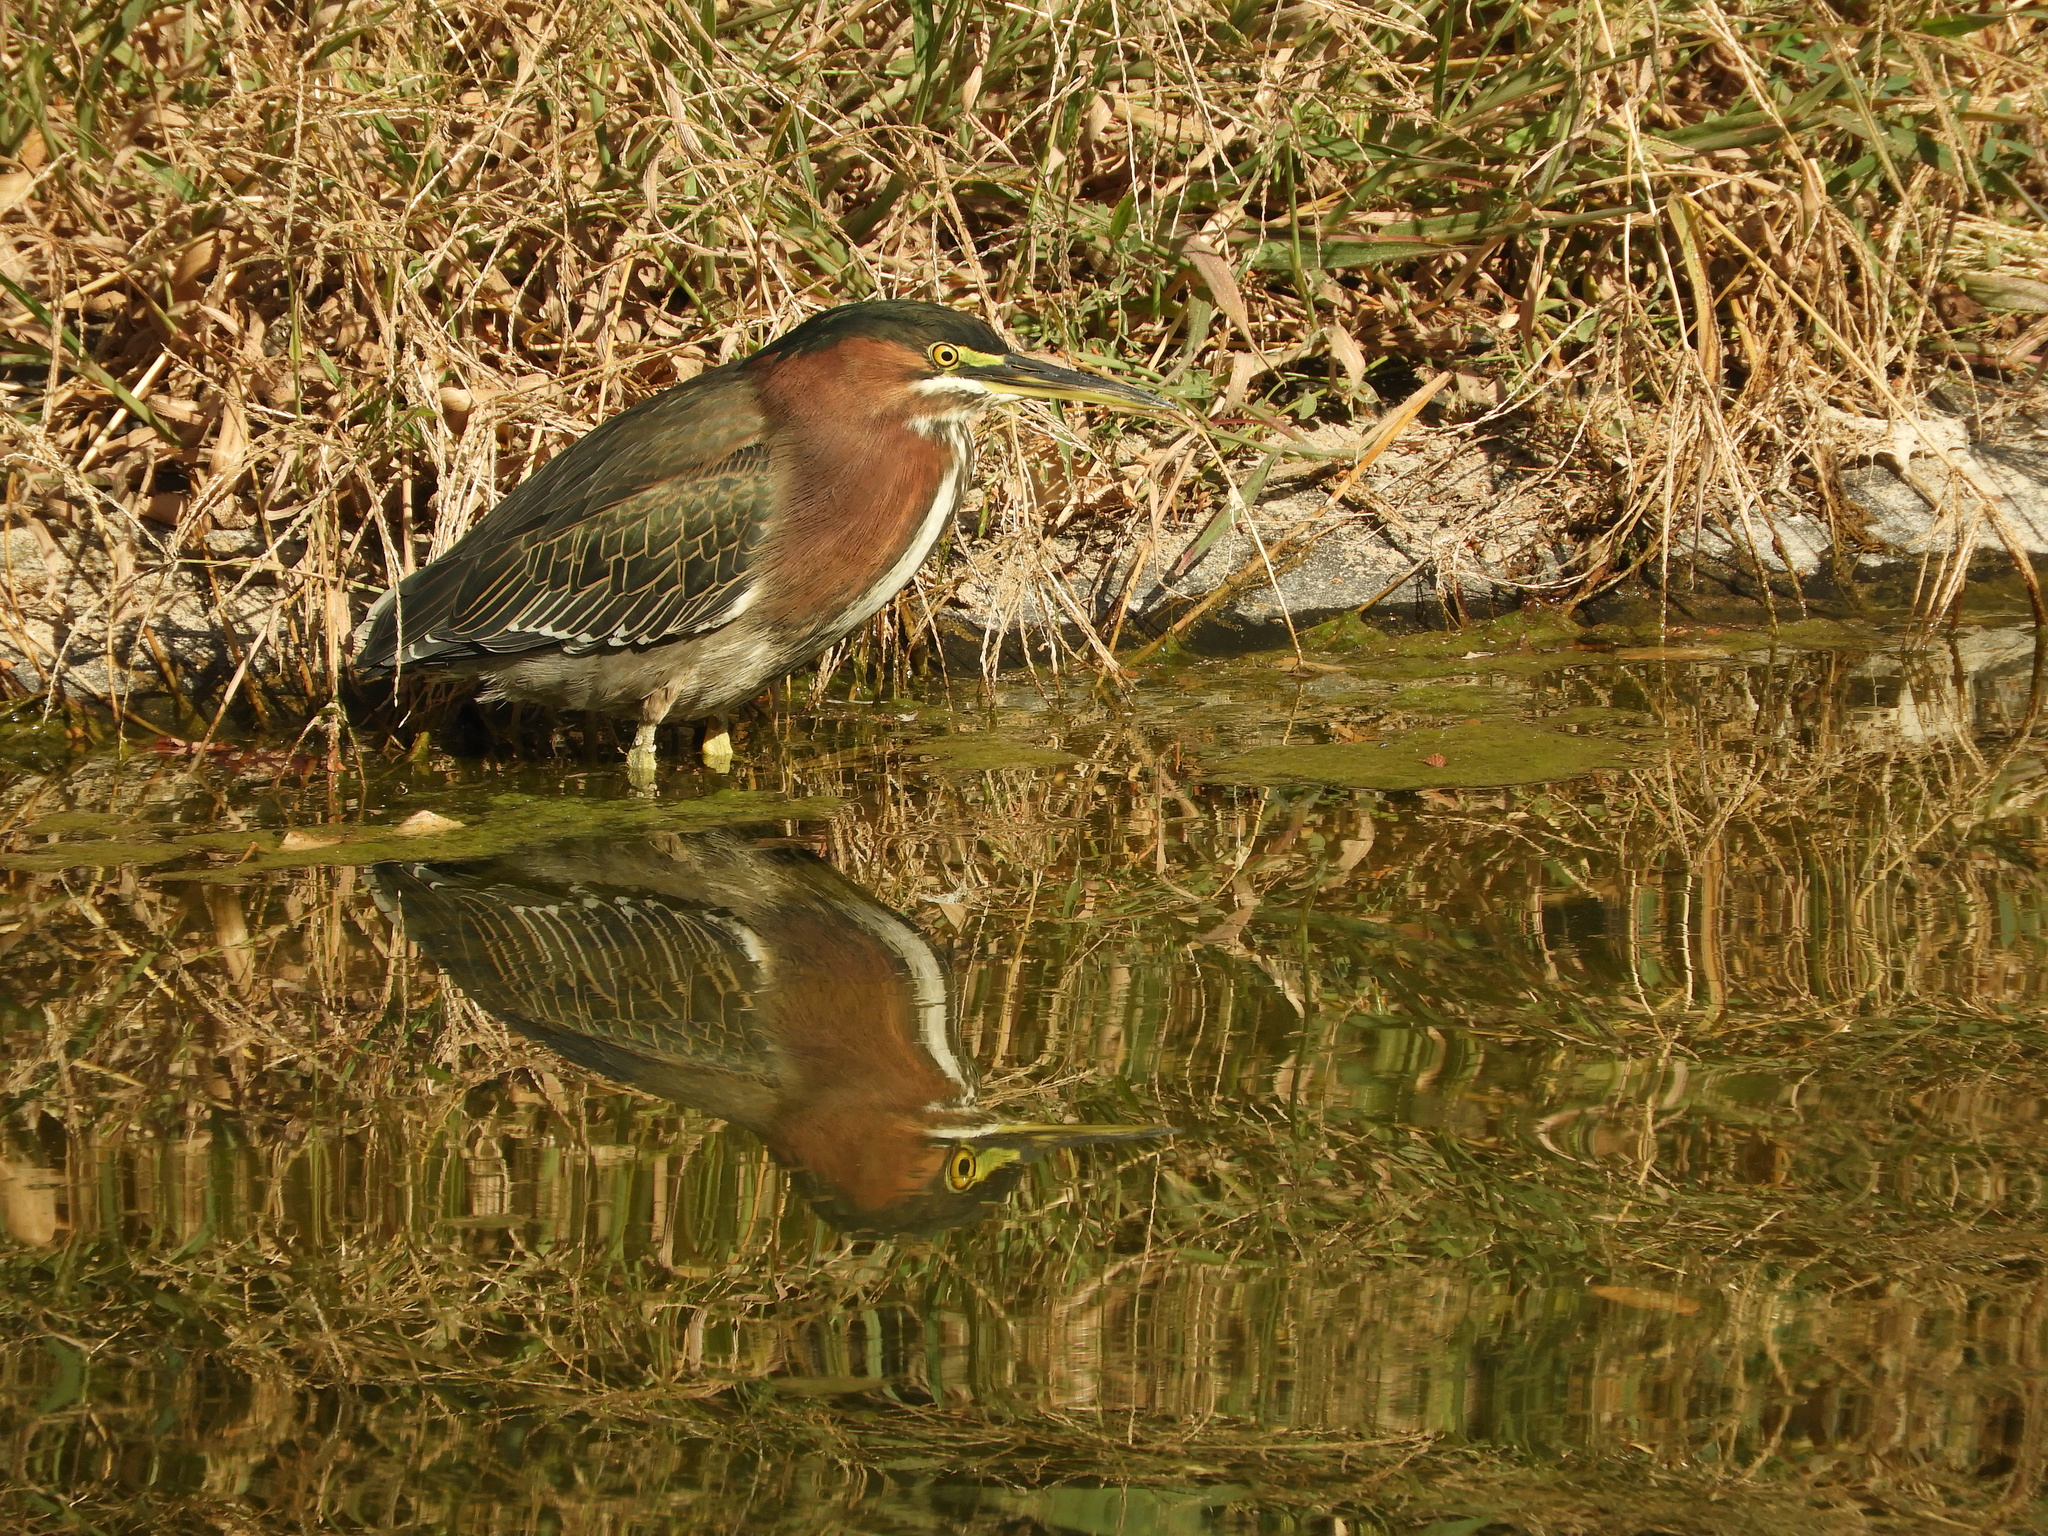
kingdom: Animalia
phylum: Chordata
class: Aves
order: Pelecaniformes
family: Ardeidae
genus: Butorides
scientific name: Butorides virescens
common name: Green heron
